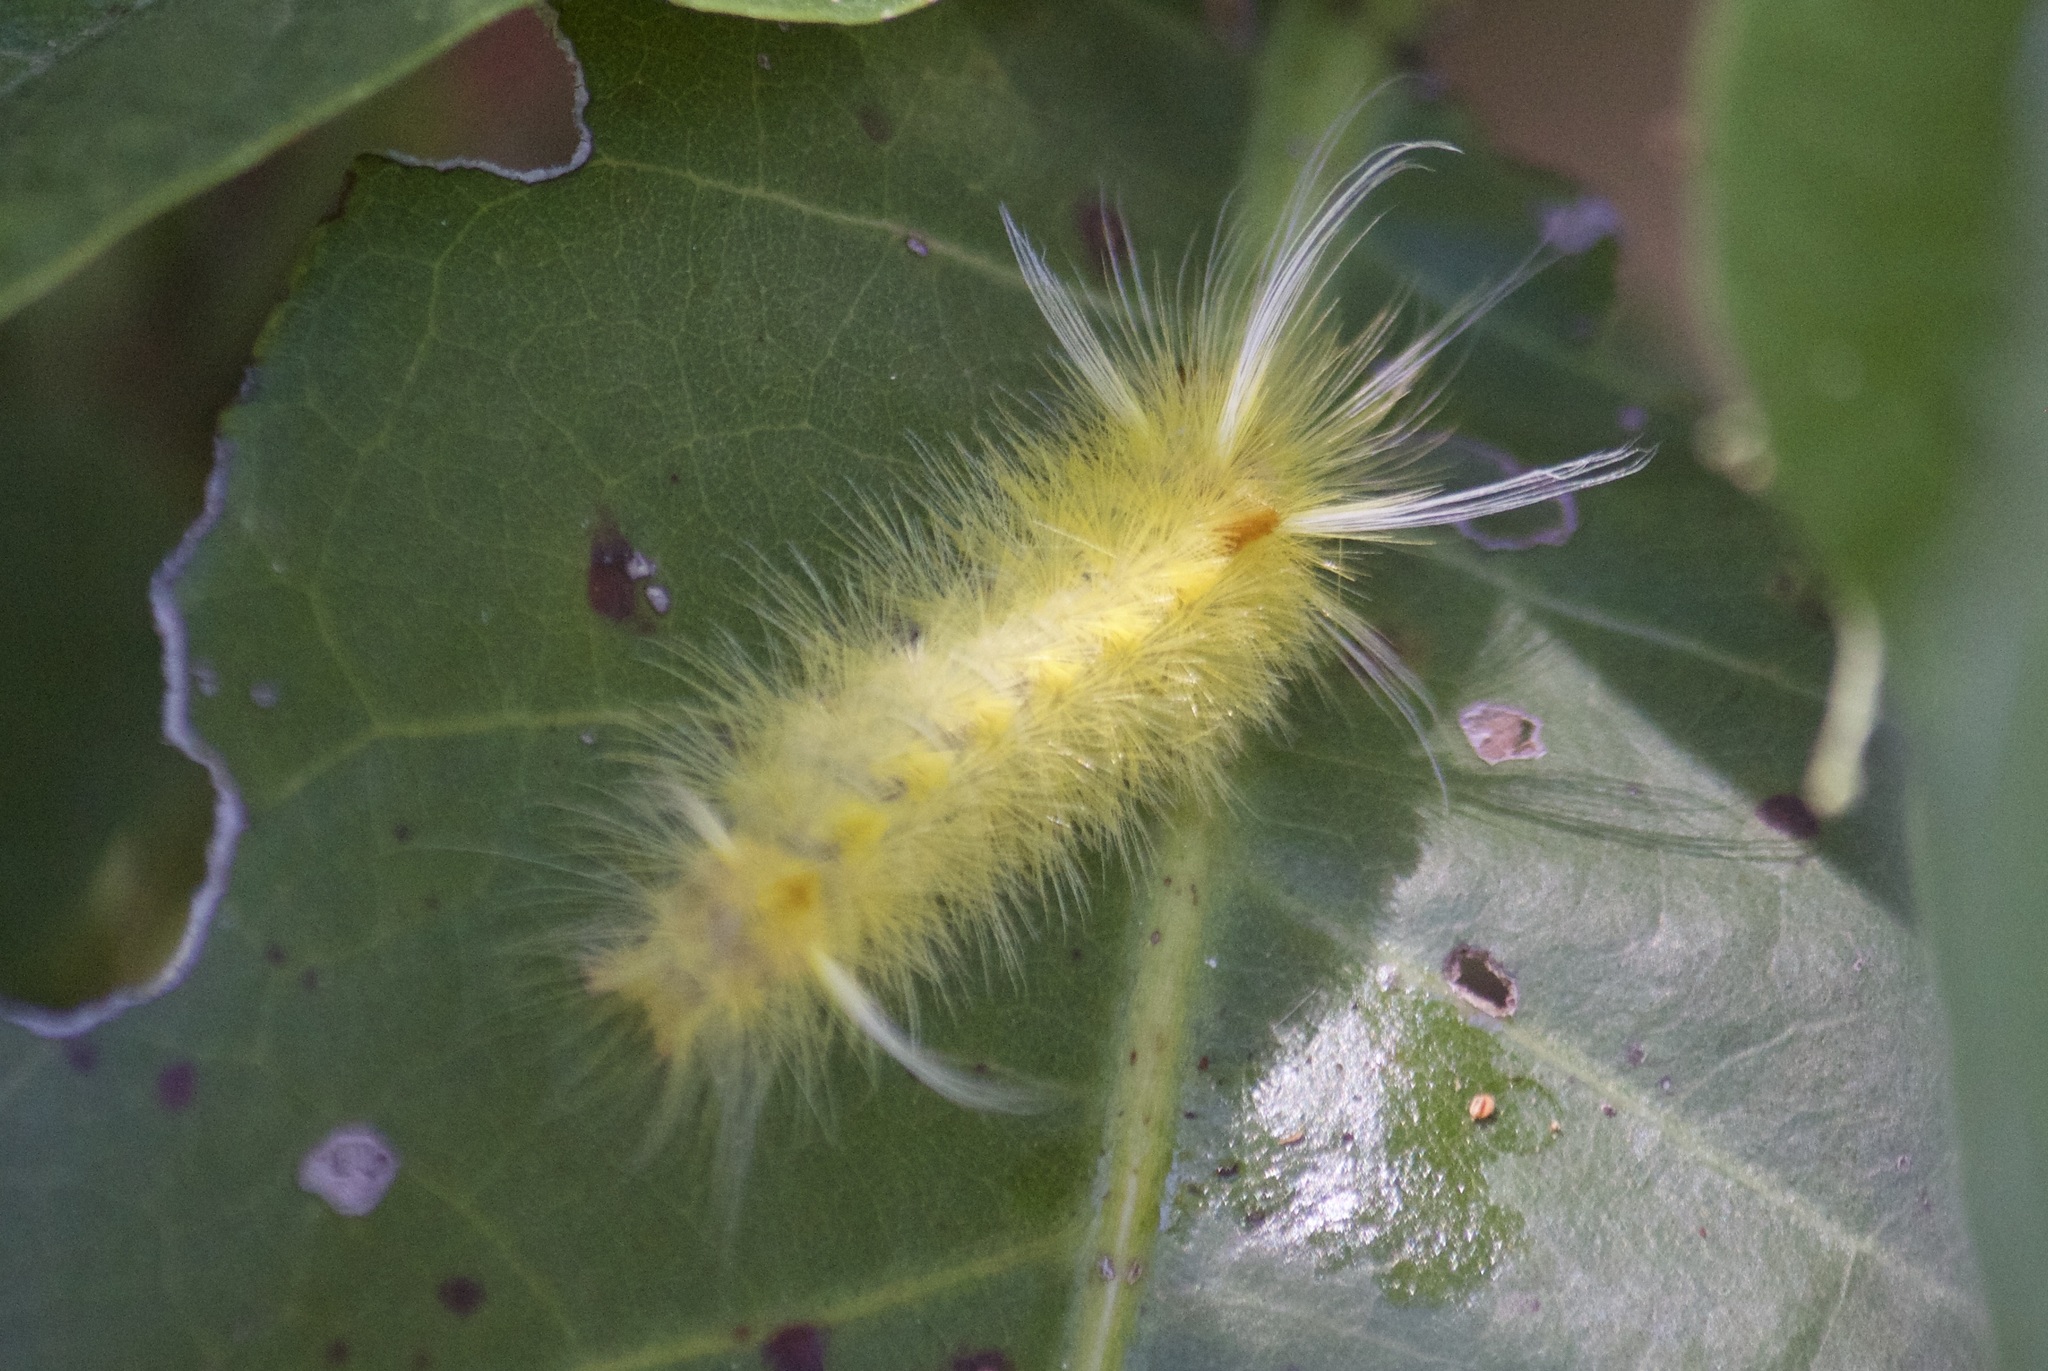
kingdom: Animalia
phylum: Arthropoda
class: Insecta
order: Lepidoptera
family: Erebidae
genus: Halysidota
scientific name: Halysidota cinctipes
